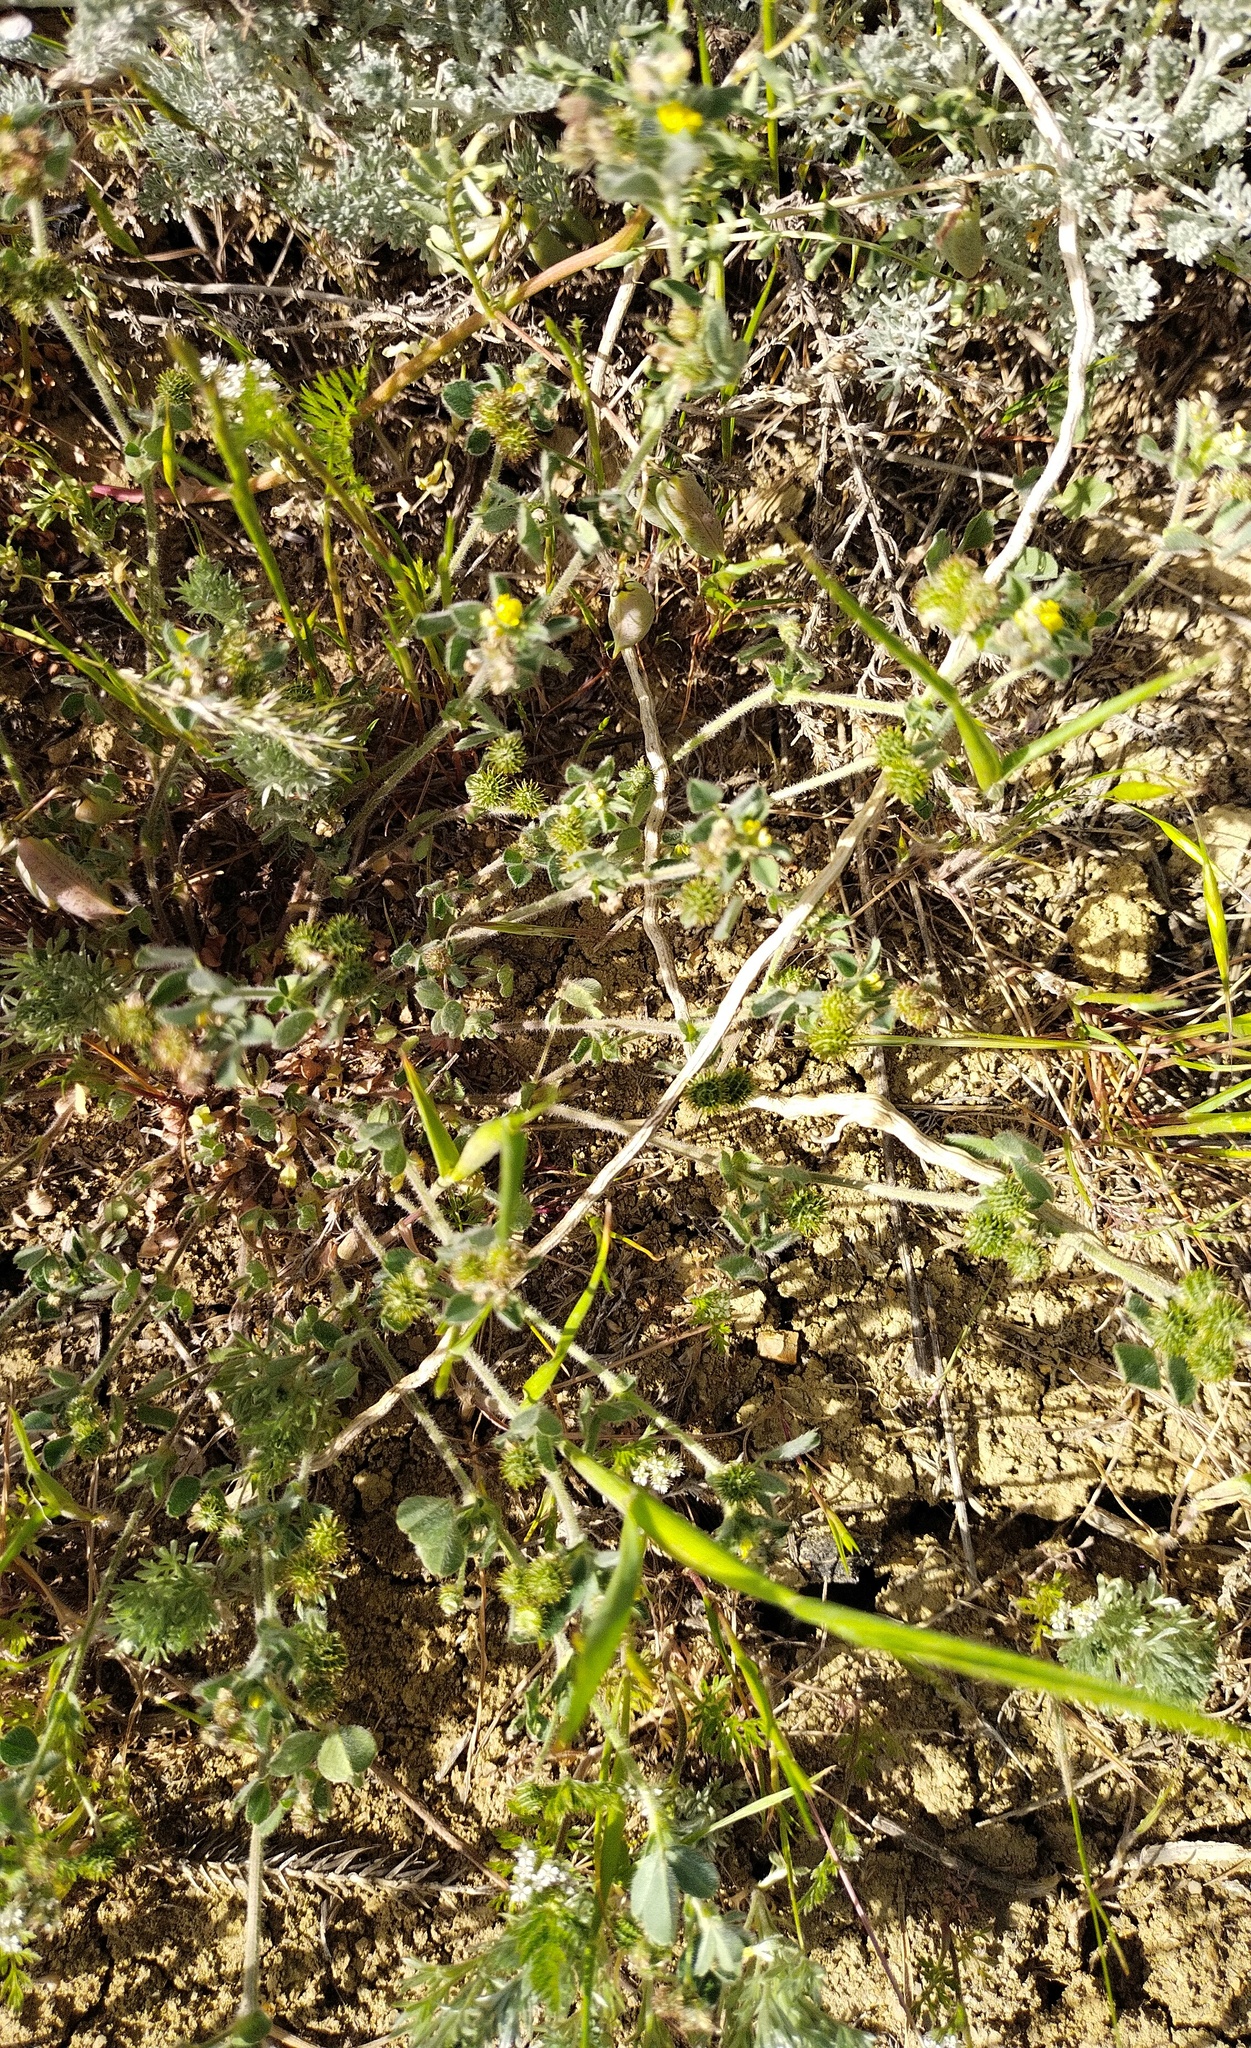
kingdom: Plantae
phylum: Tracheophyta
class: Liliopsida
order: Asparagales
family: Asparagaceae
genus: Asparagus
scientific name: Asparagus verticillatus
